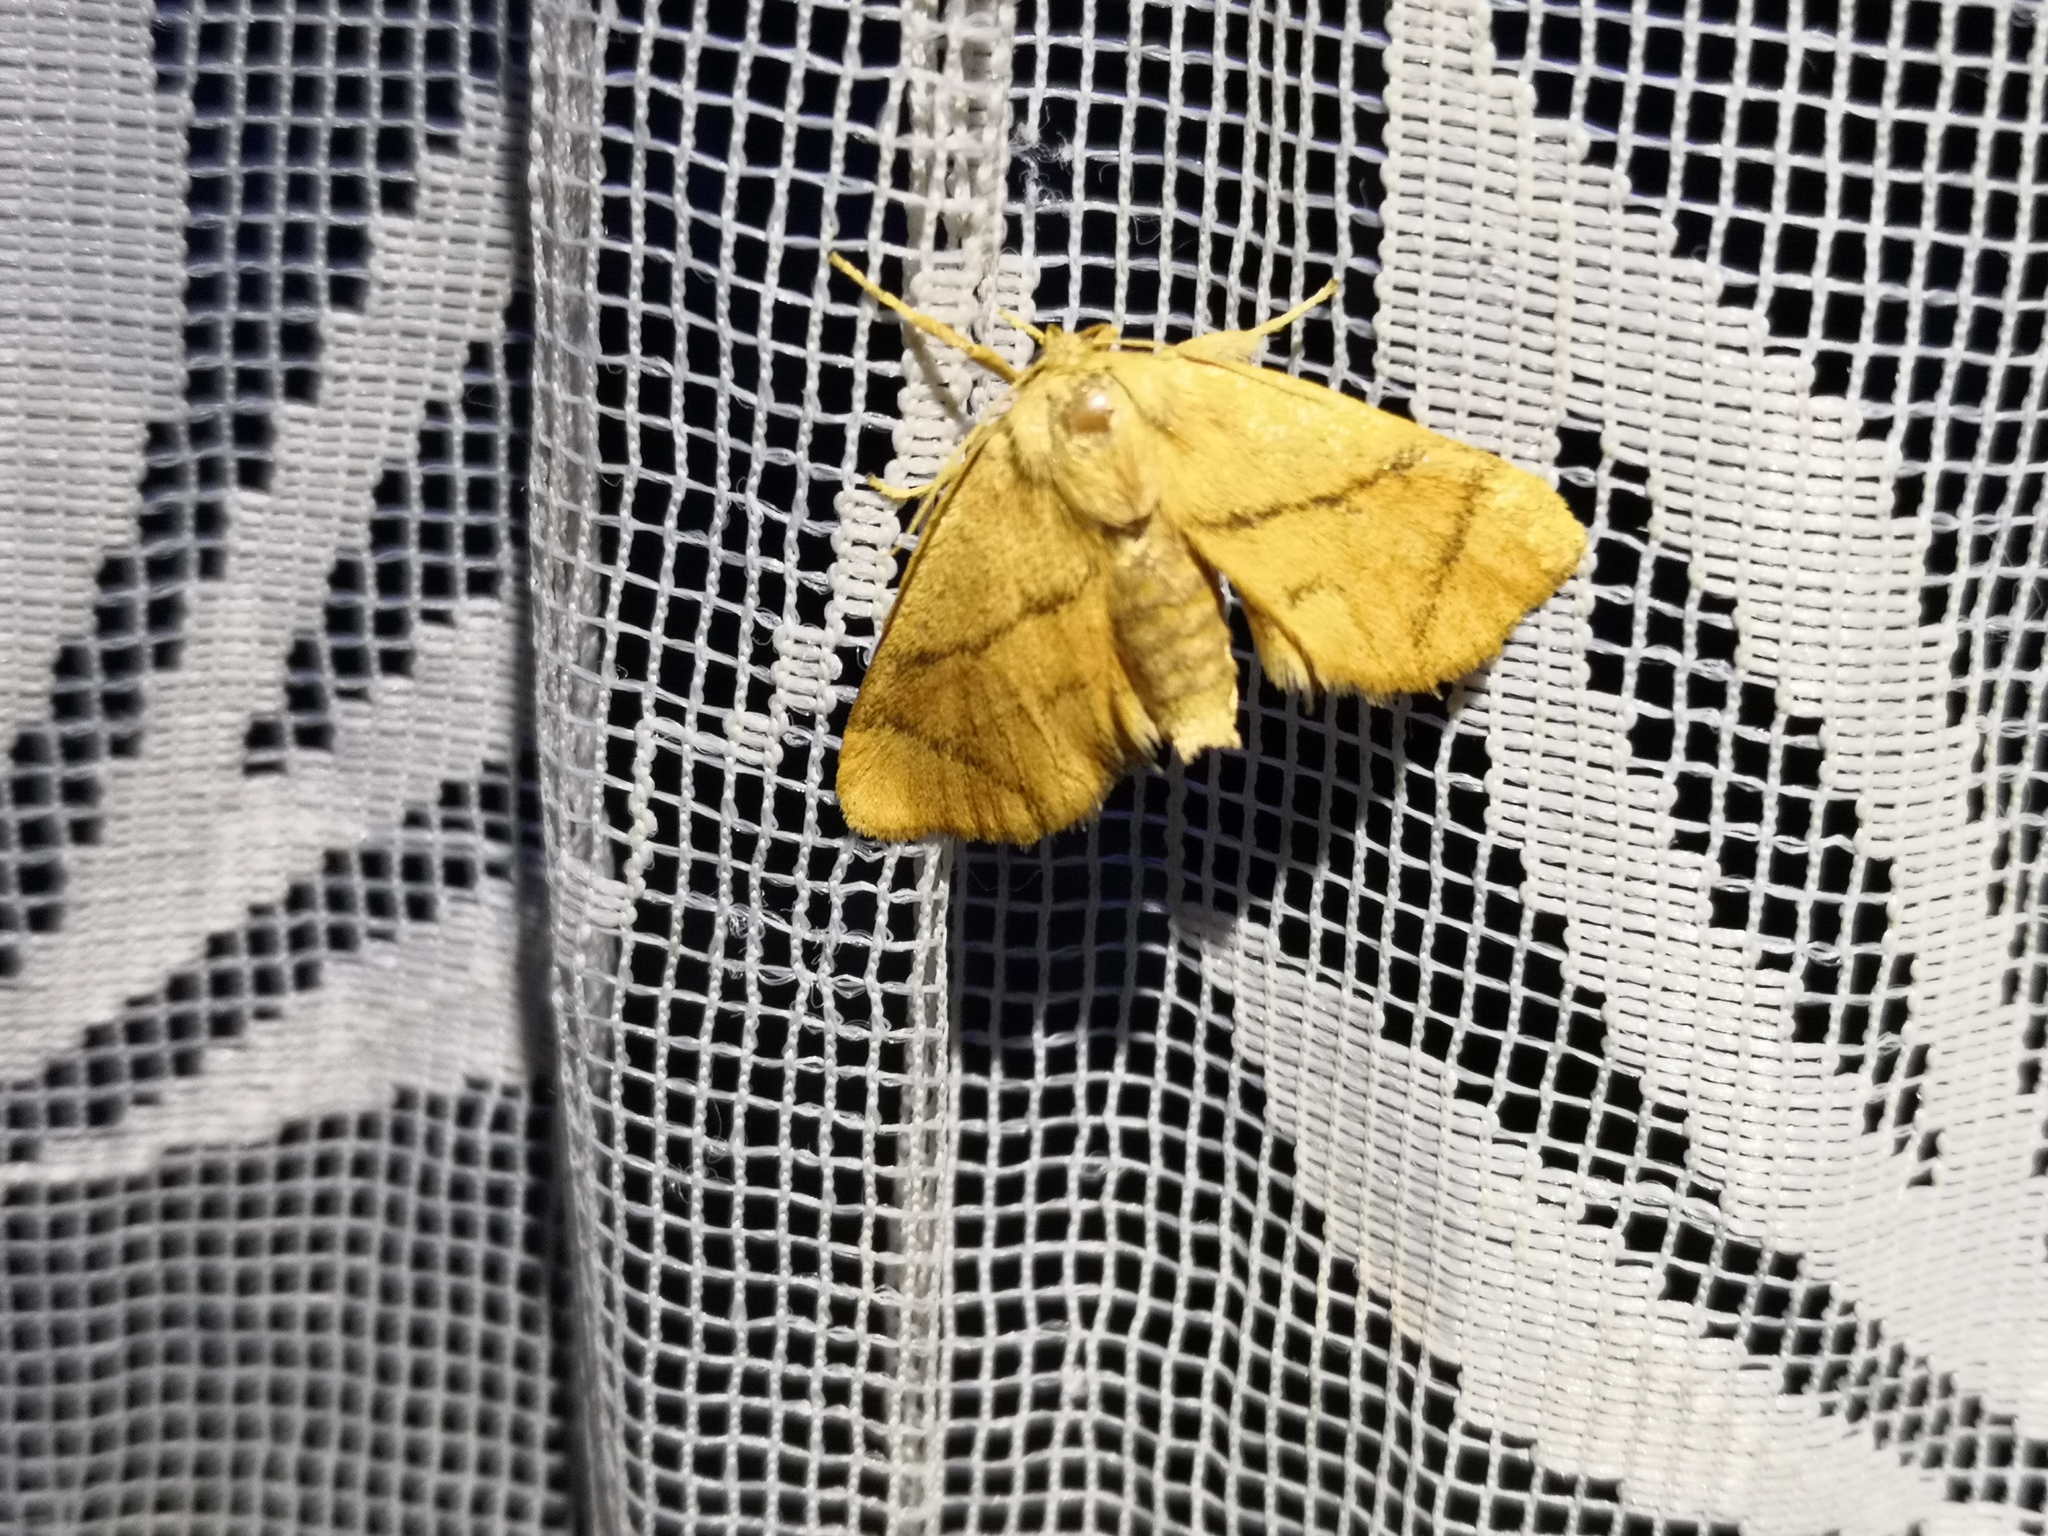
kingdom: Animalia
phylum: Arthropoda
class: Insecta
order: Lepidoptera
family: Limacodidae
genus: Apoda
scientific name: Apoda limacodes
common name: Festoon
